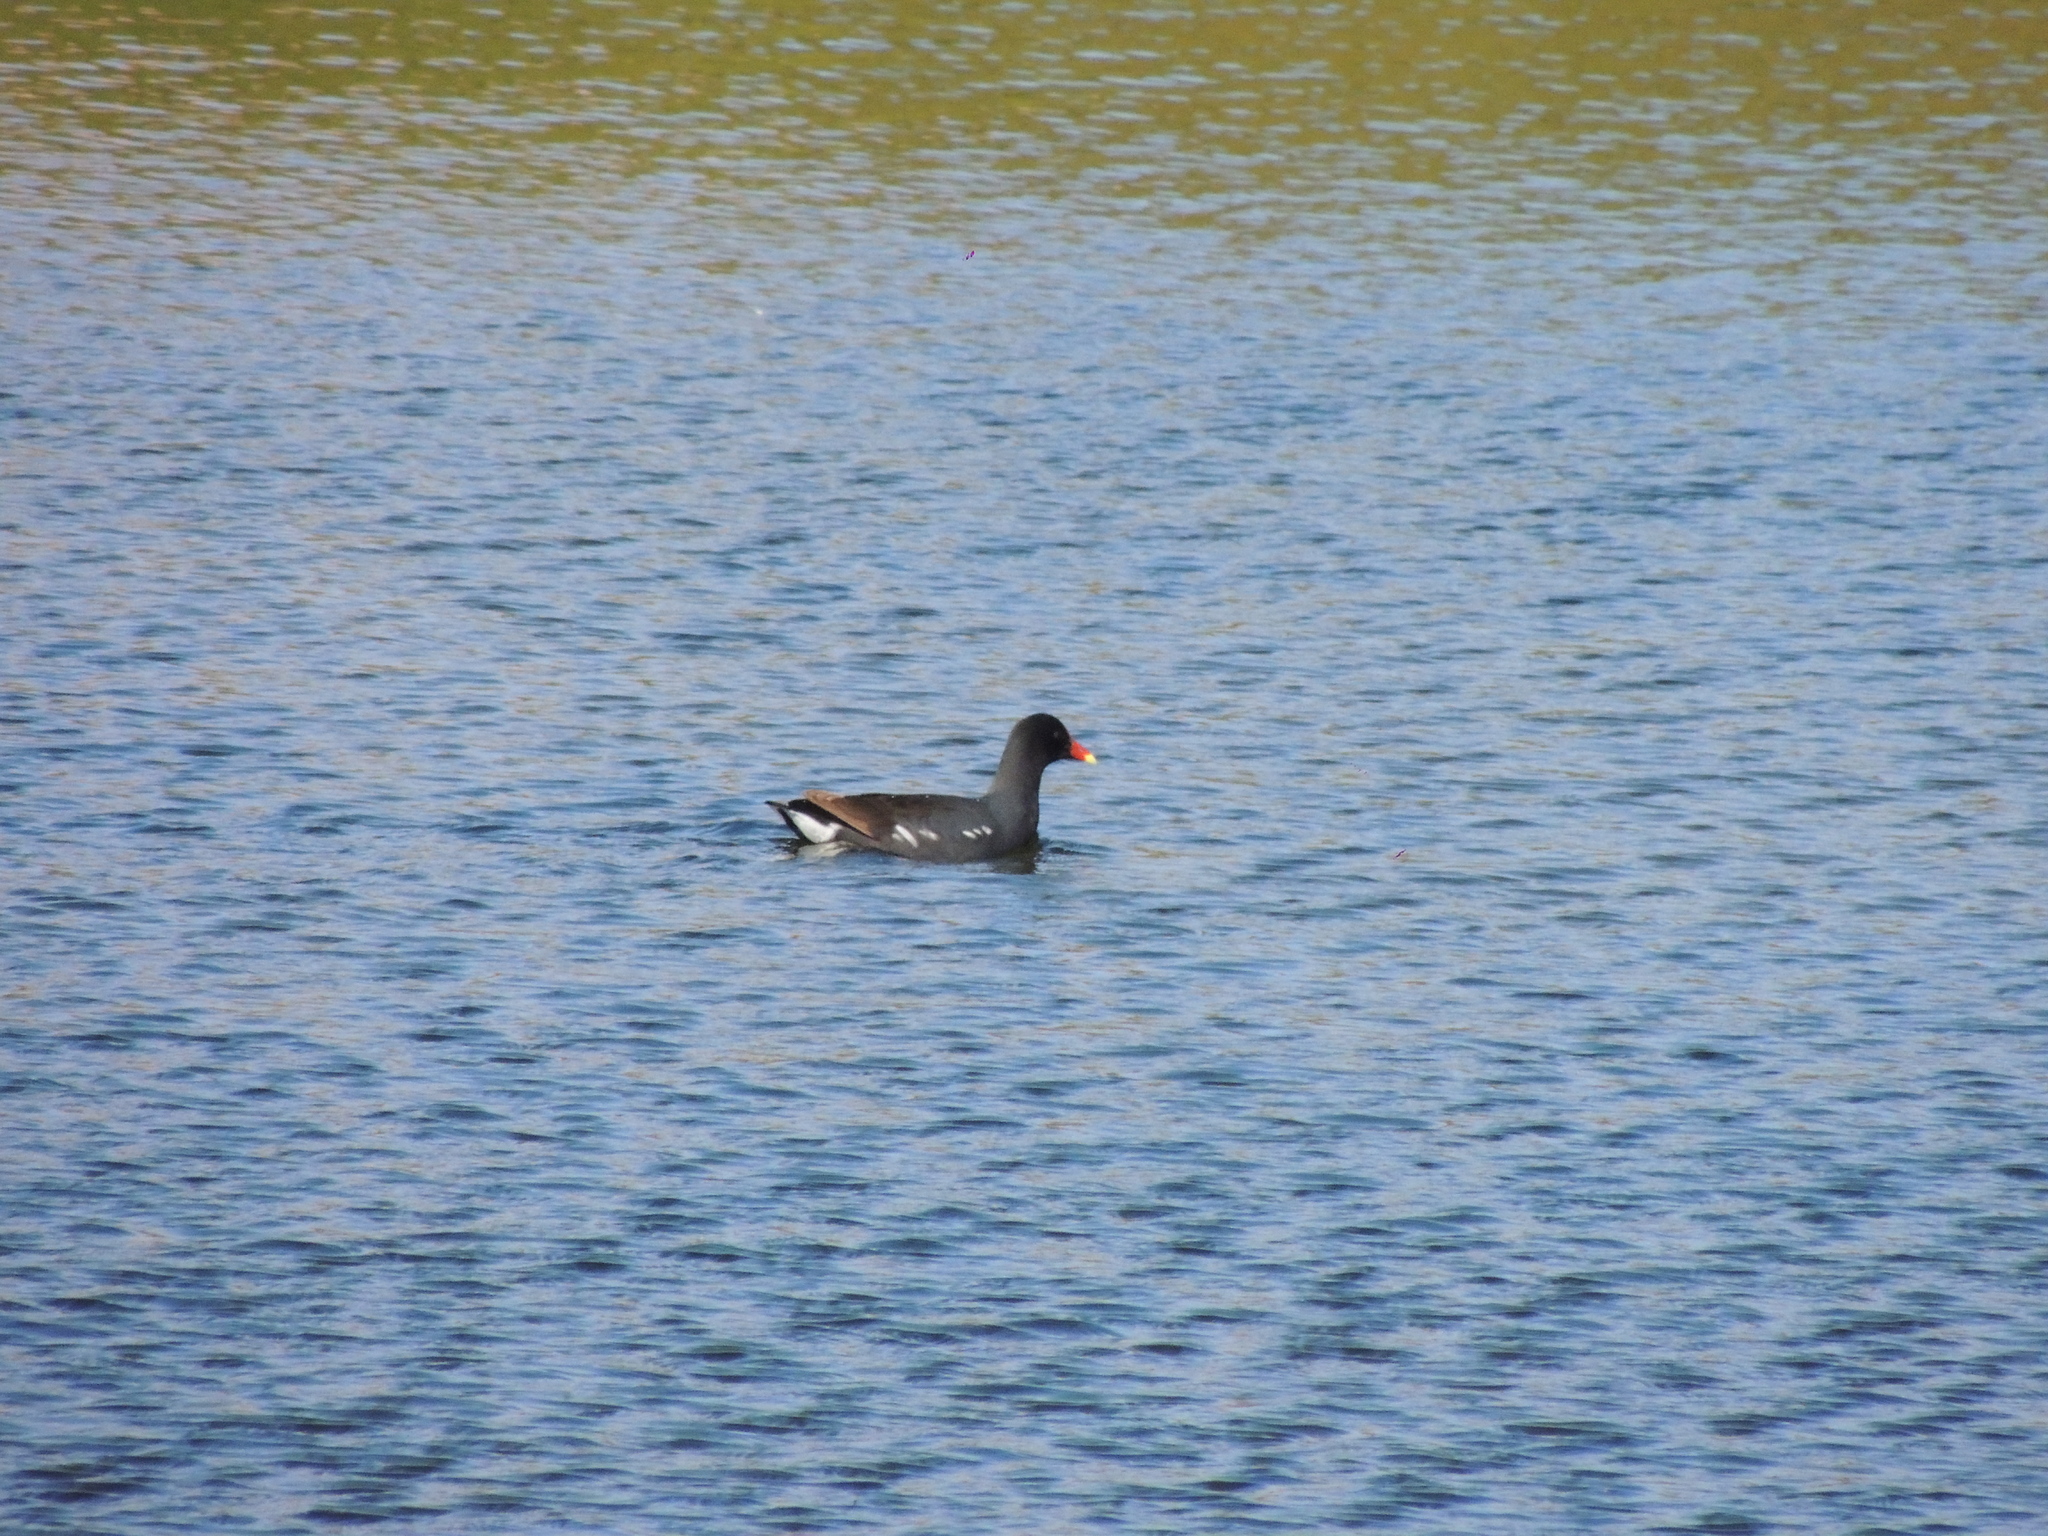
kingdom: Animalia
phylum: Chordata
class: Aves
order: Gruiformes
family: Rallidae
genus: Gallinula
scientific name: Gallinula chloropus
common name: Common moorhen
